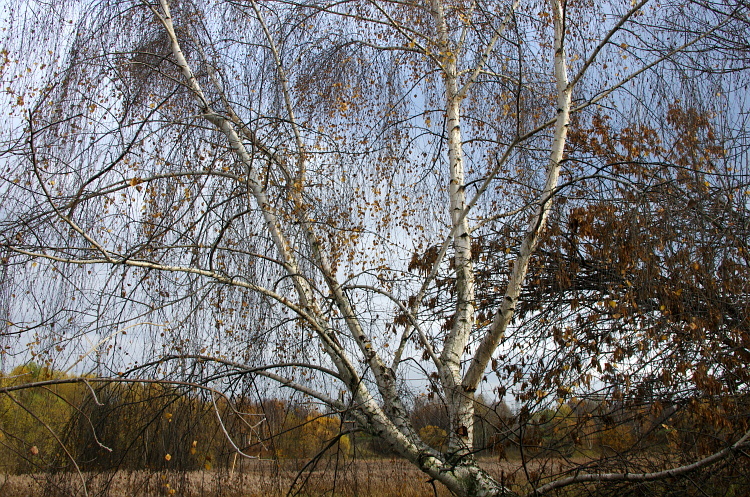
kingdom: Plantae
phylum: Tracheophyta
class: Magnoliopsida
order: Fagales
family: Betulaceae
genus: Betula
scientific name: Betula pendula
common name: Silver birch
